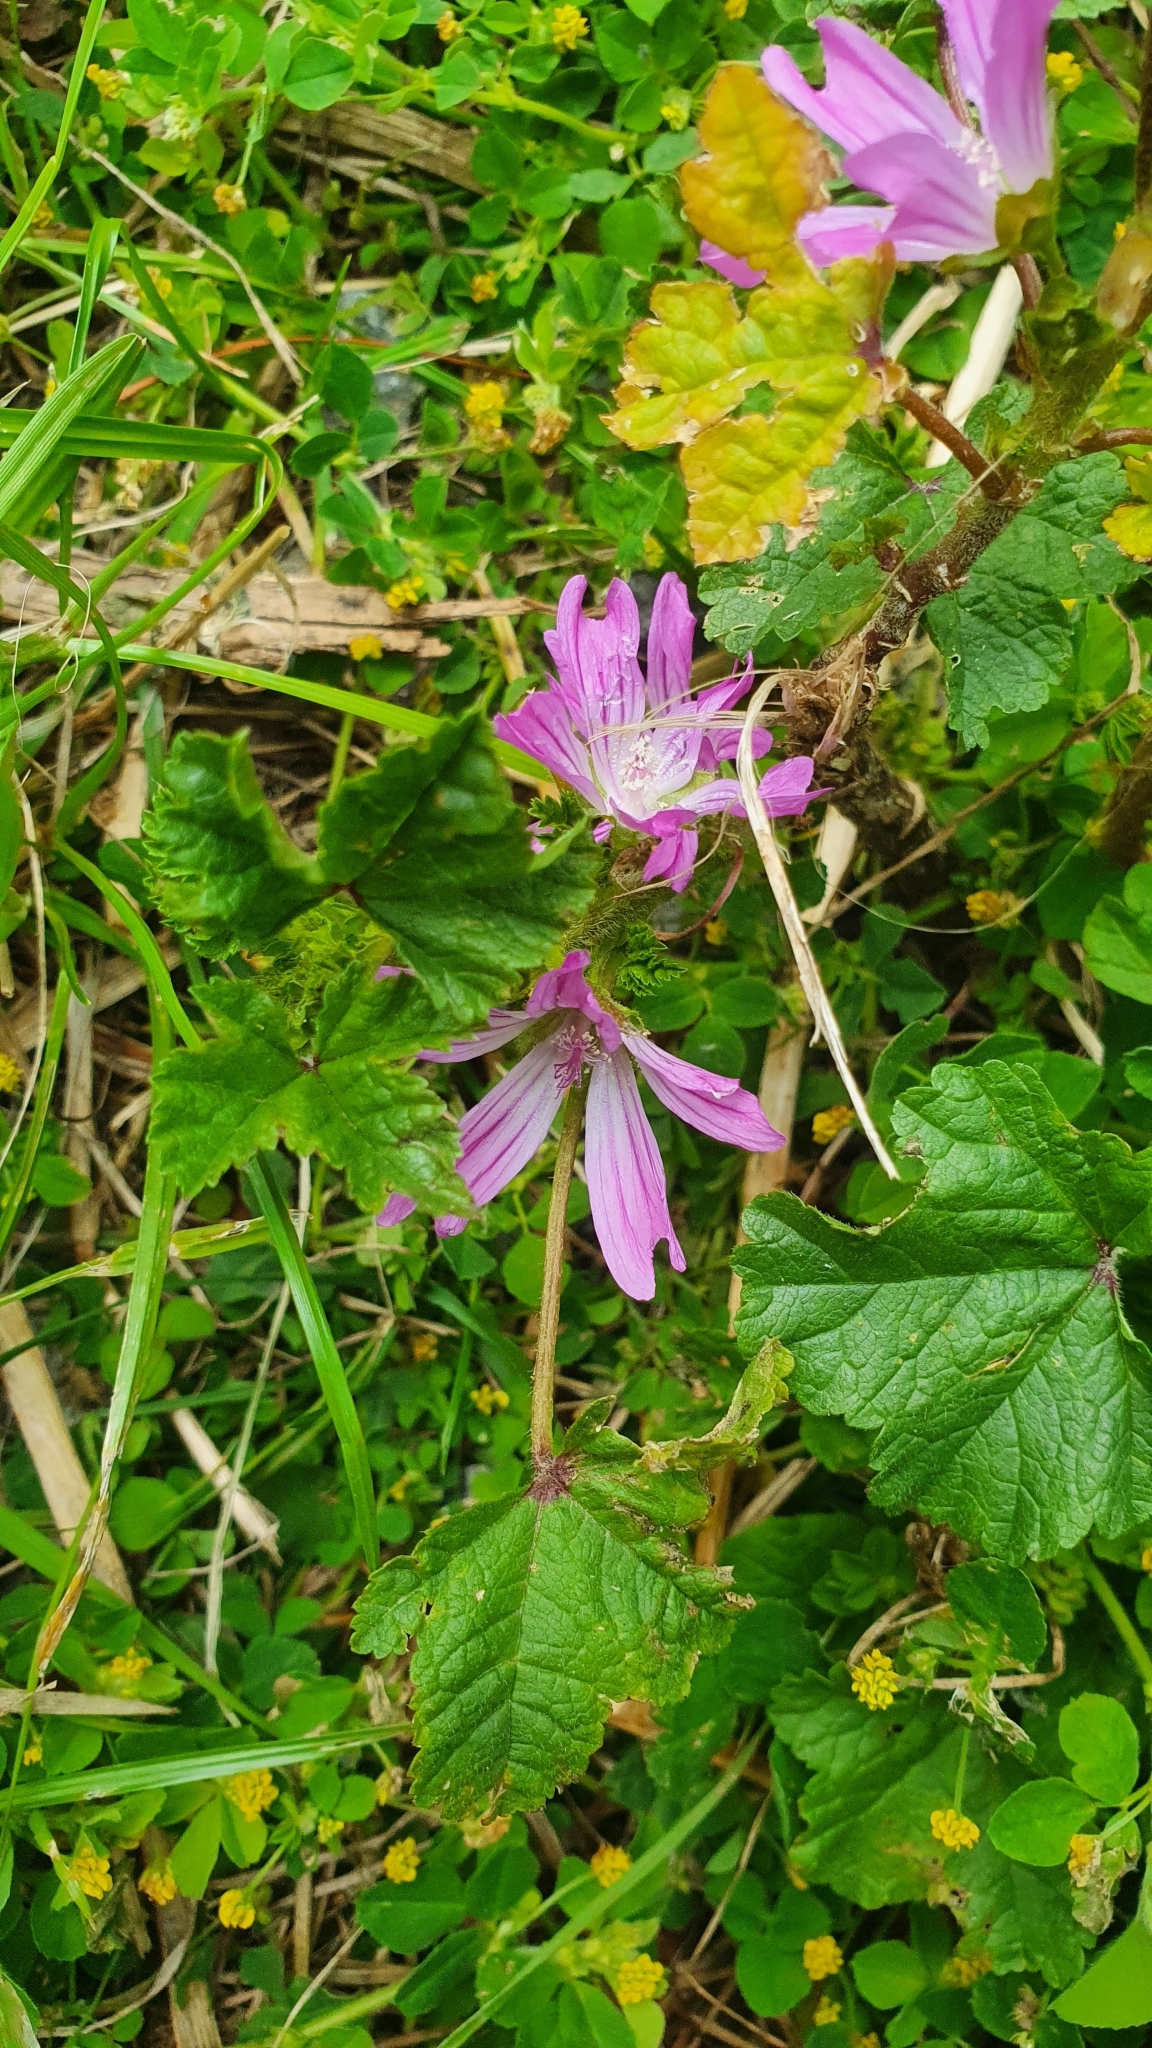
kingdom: Plantae
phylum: Tracheophyta
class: Magnoliopsida
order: Malvales
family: Malvaceae
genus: Malva
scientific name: Malva sylvestris
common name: Common mallow
